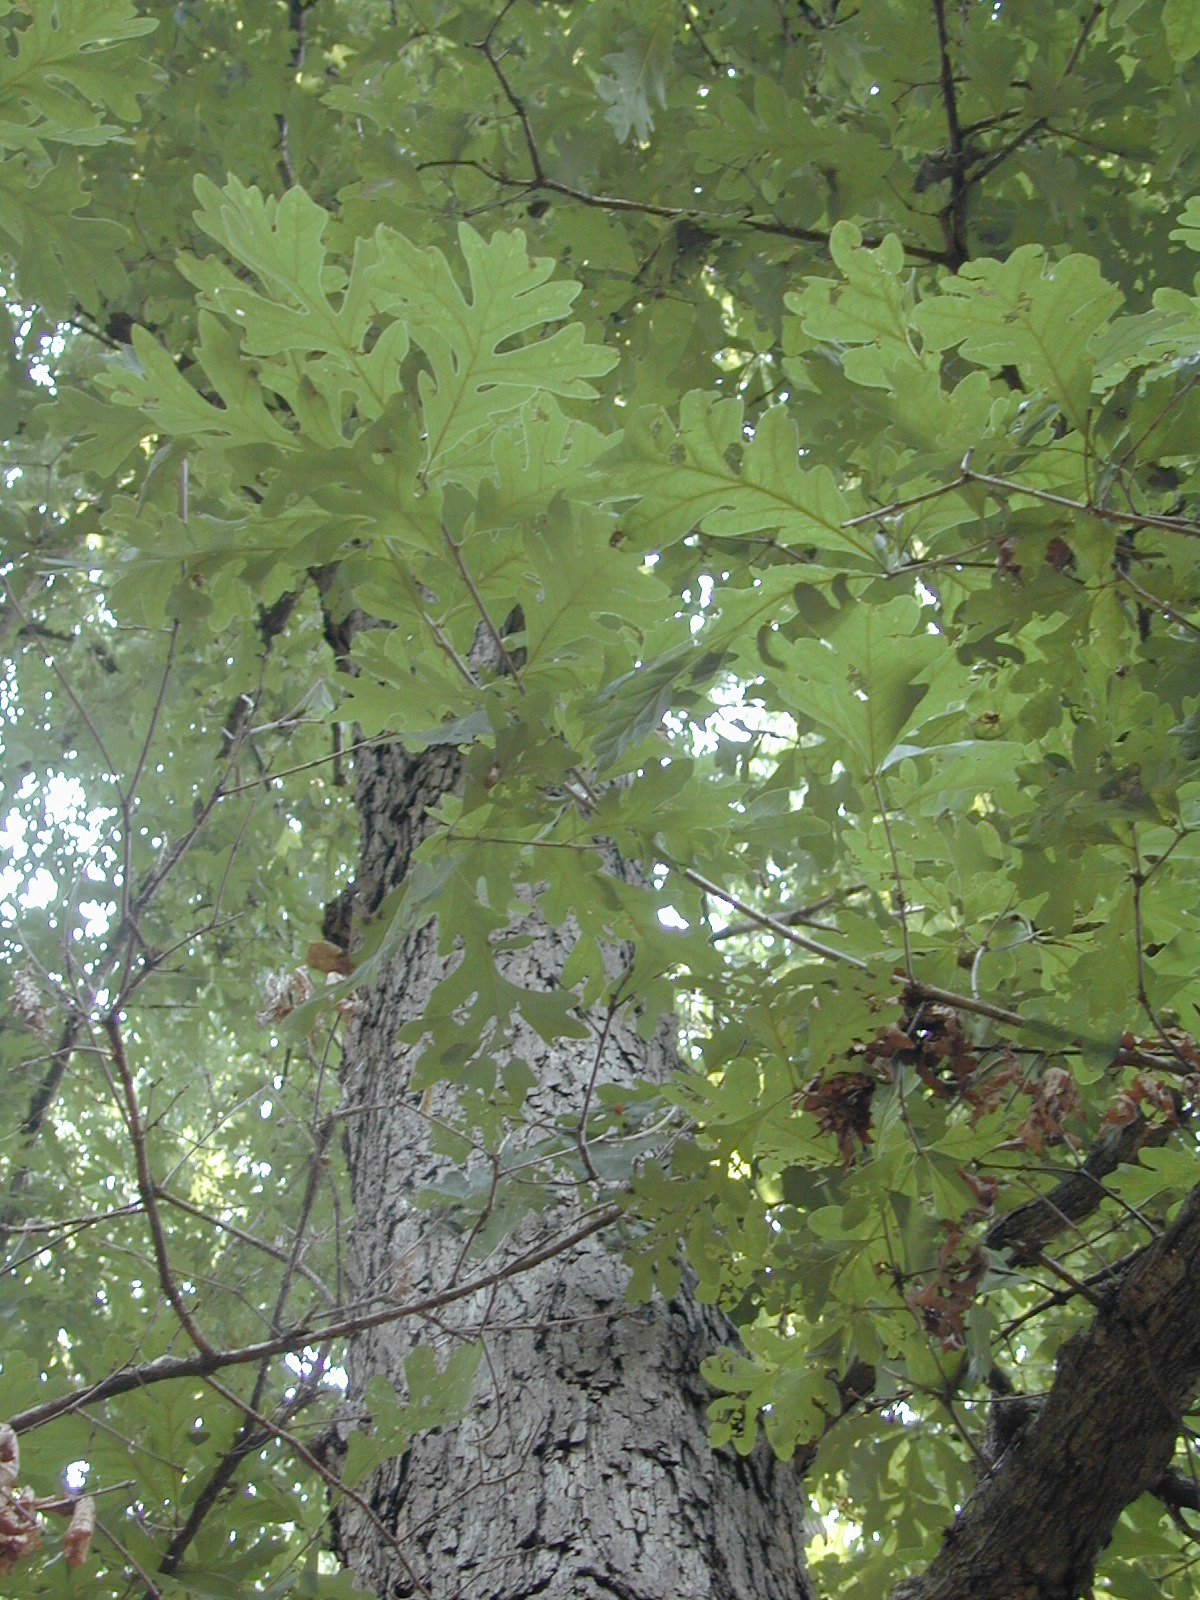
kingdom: Plantae
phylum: Tracheophyta
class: Magnoliopsida
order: Fagales
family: Fagaceae
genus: Quercus
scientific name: Quercus alba
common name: White oak
